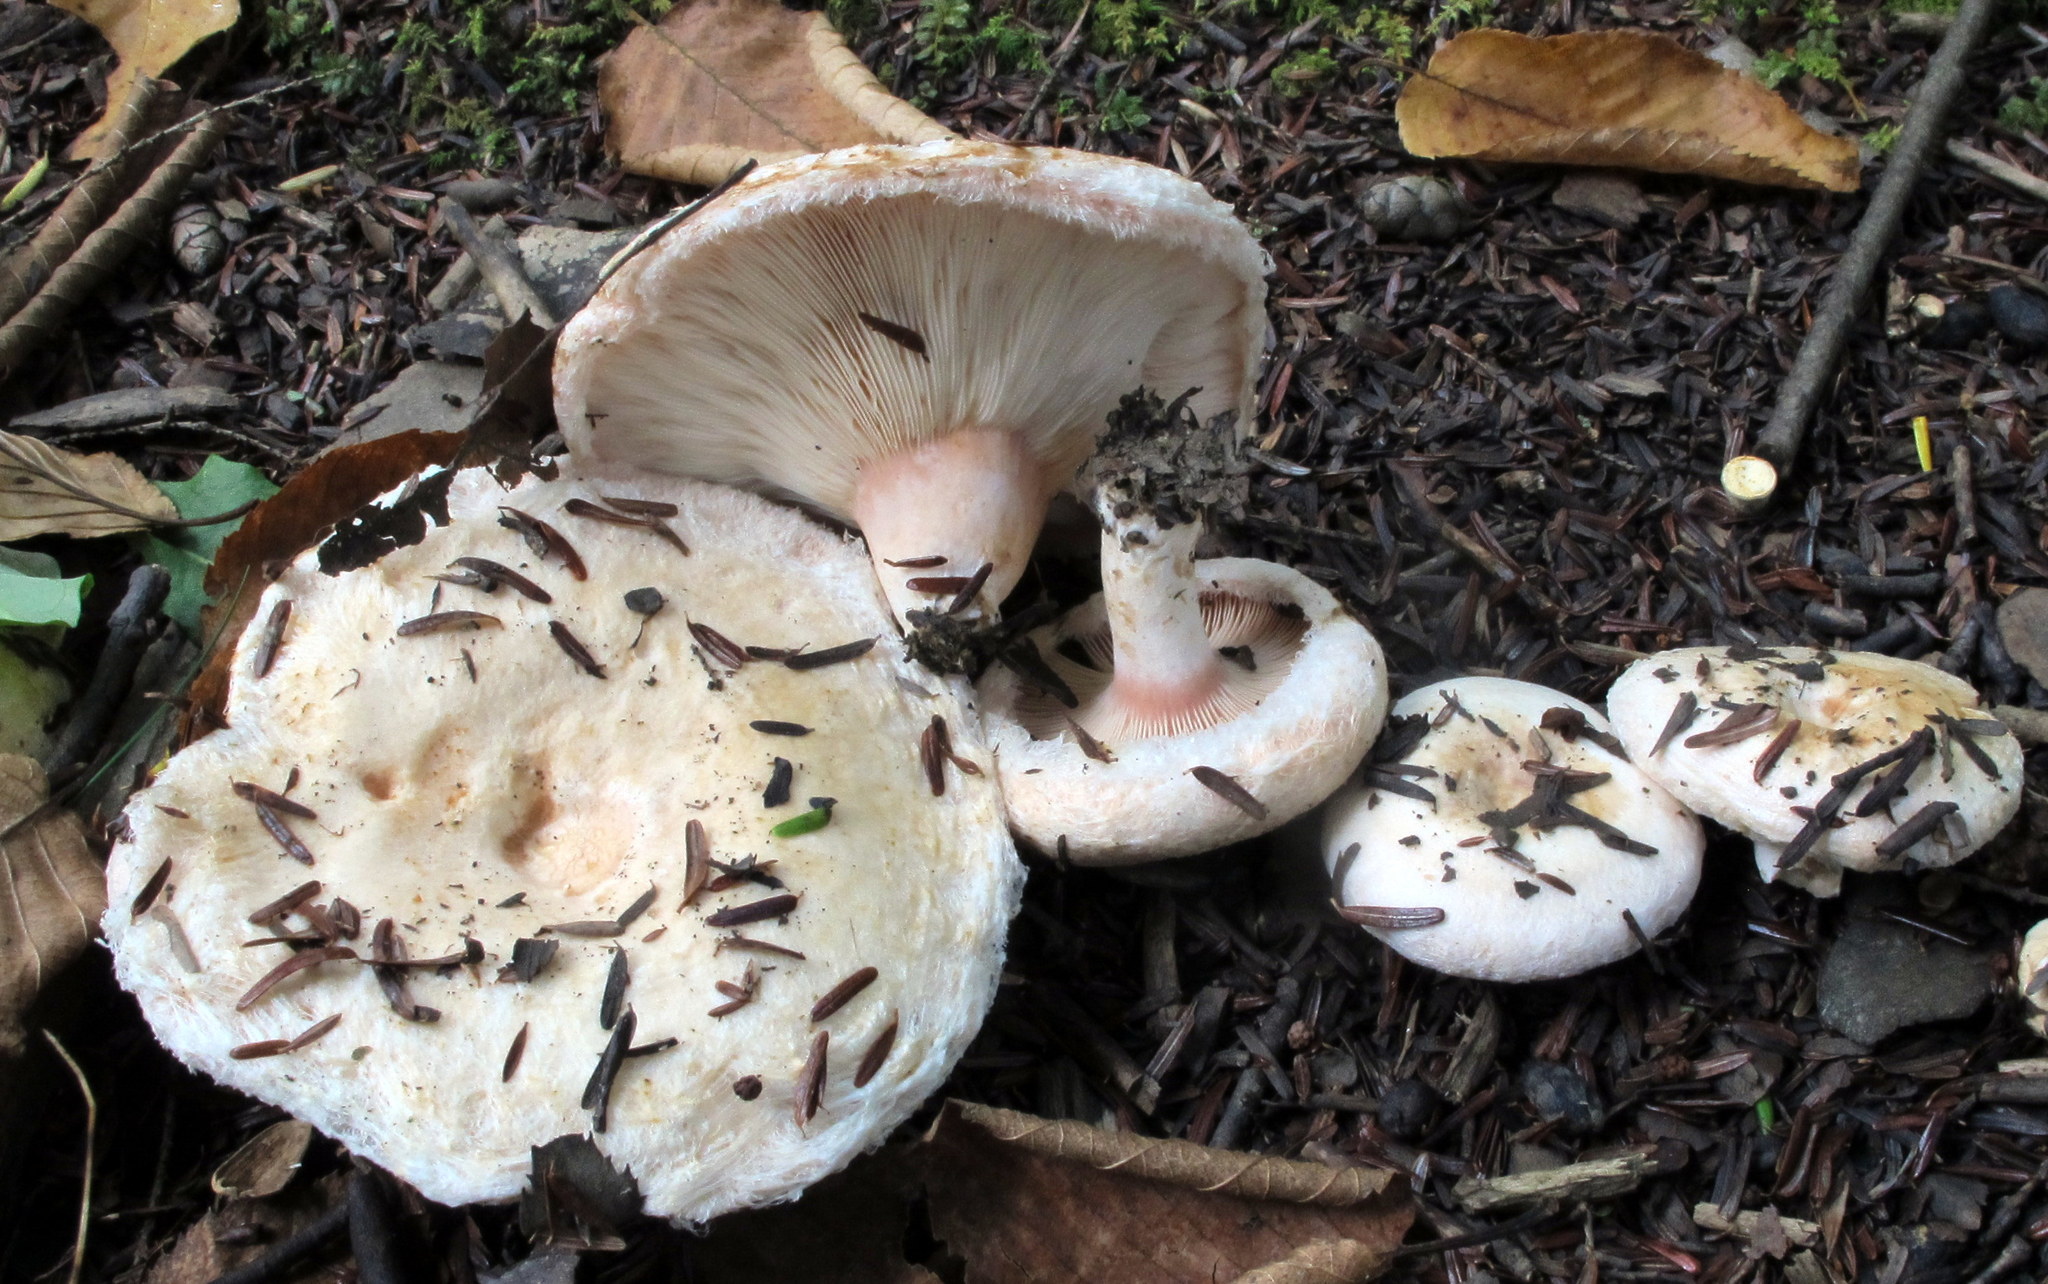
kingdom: Fungi
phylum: Basidiomycota
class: Agaricomycetes
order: Russulales
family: Russulaceae
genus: Lactarius
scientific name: Lactarius pubescens
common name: Bearded milkcap
